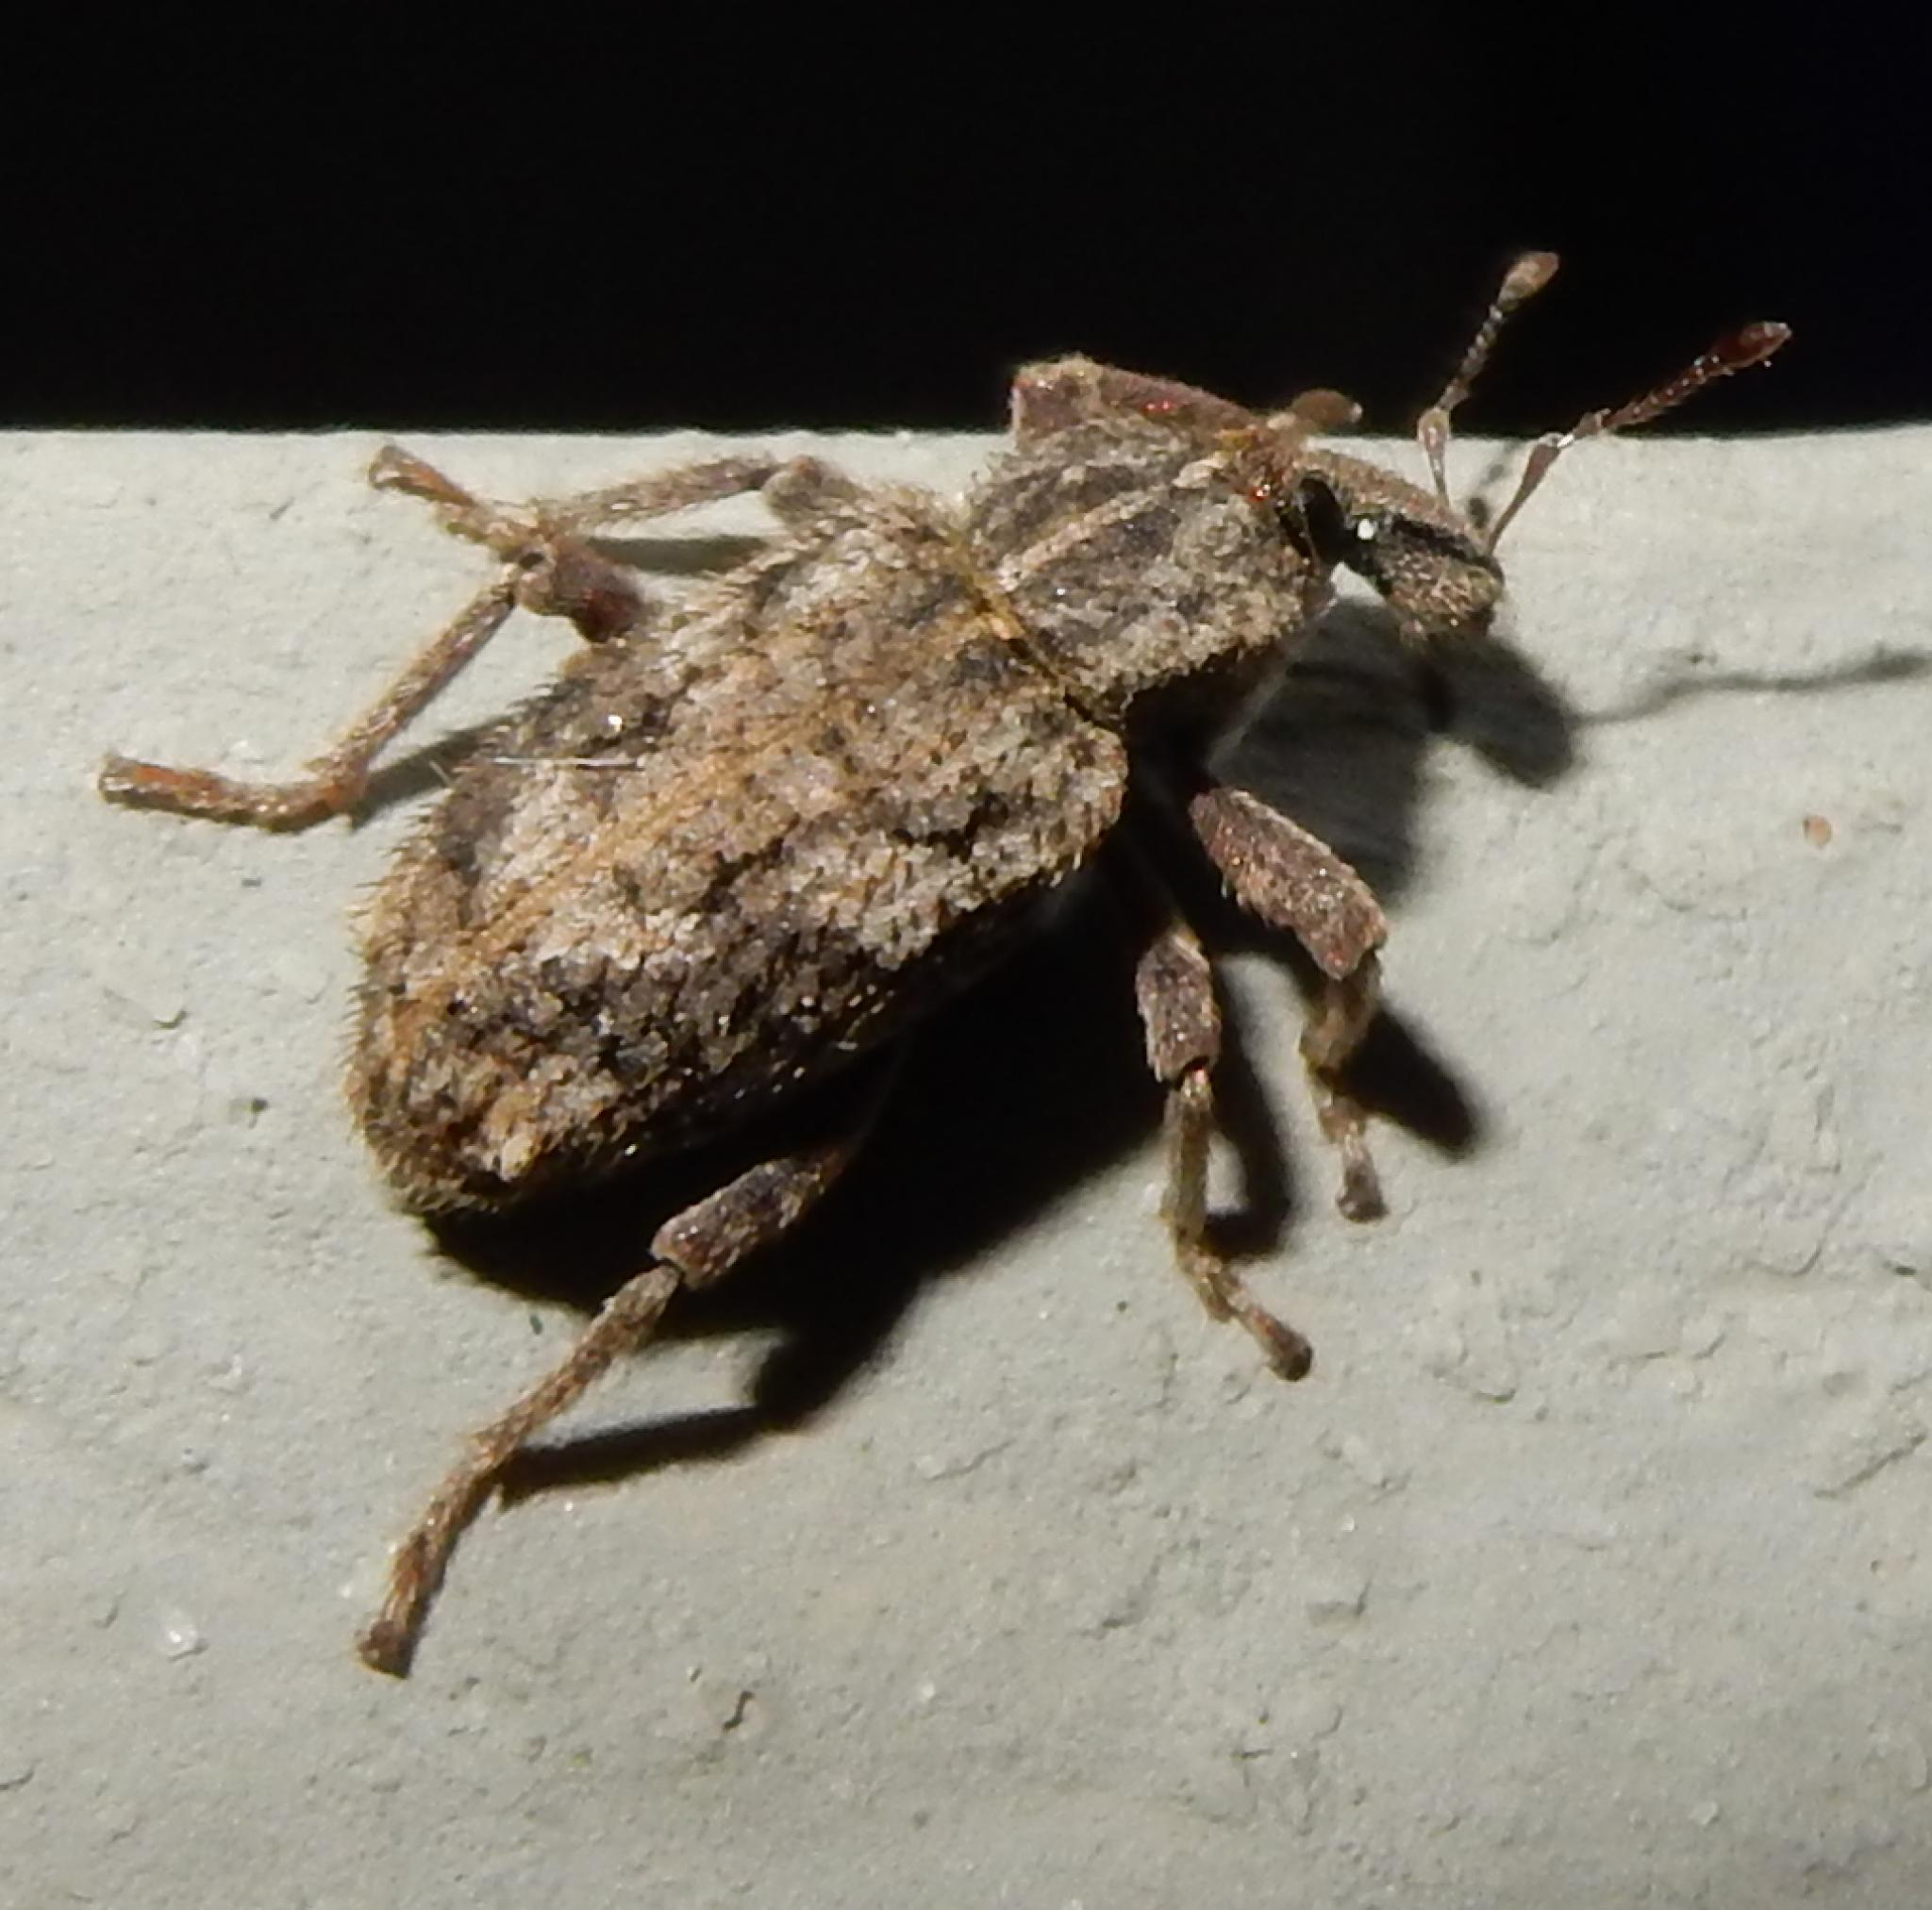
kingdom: Animalia
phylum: Arthropoda
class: Insecta
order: Coleoptera
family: Curculionidae
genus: Listroderes
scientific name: Listroderes costirostris
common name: Weevil
